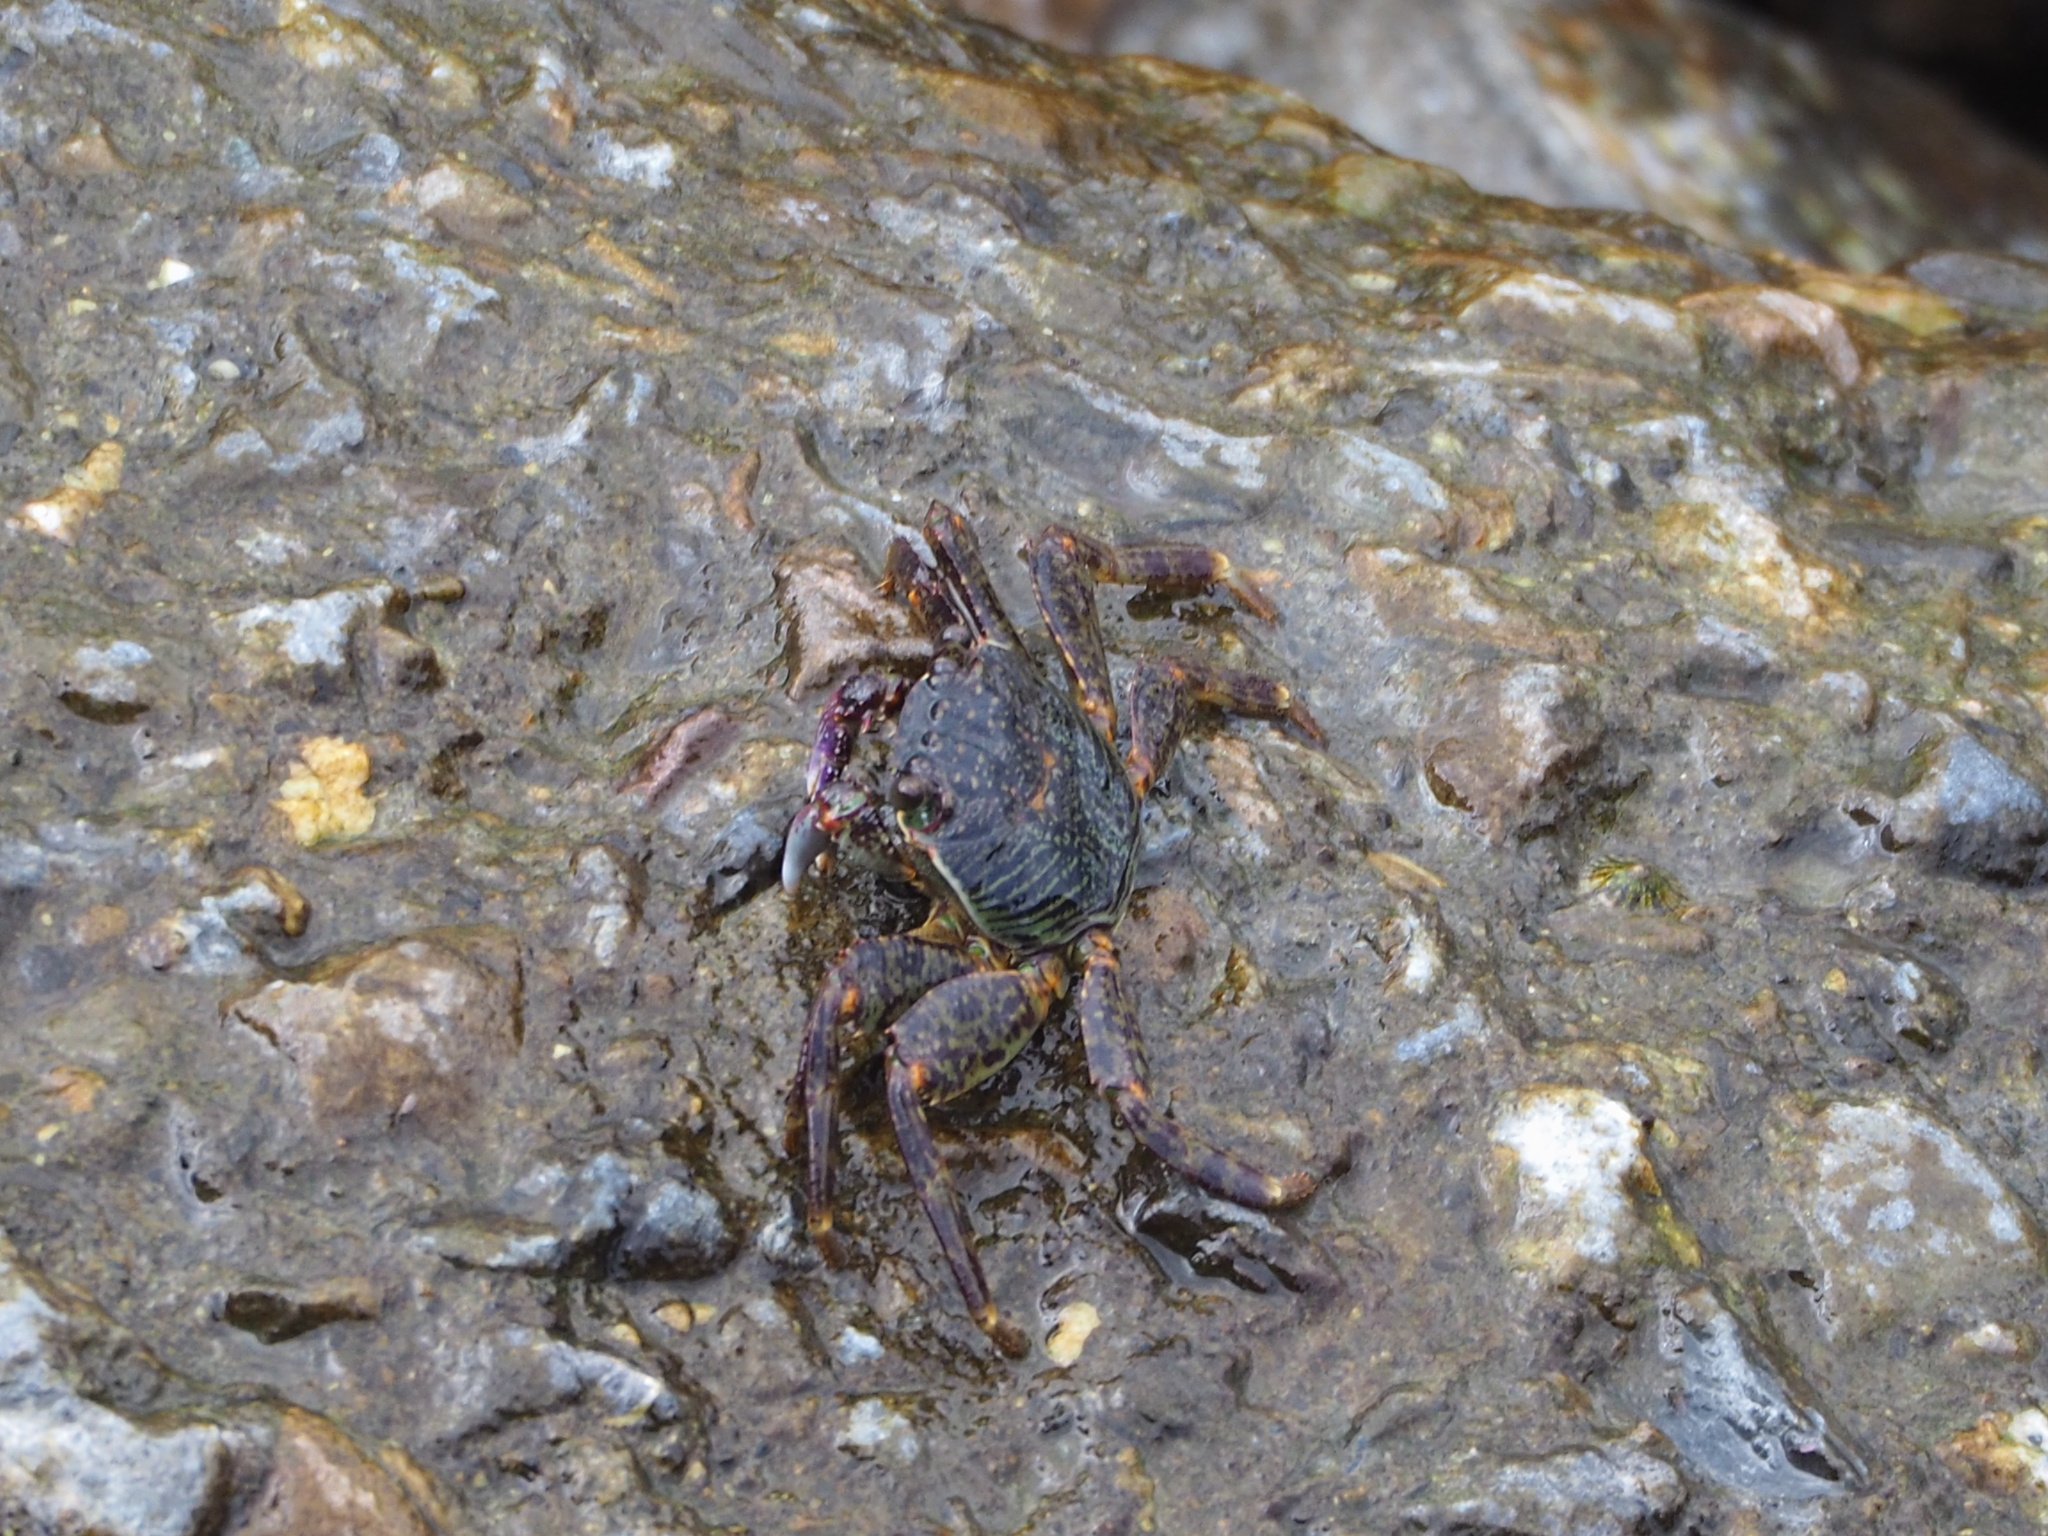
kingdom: Animalia
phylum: Arthropoda
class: Malacostraca
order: Decapoda
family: Grapsidae
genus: Grapsus
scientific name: Grapsus albolineatus
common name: Mottled lightfoot crab
